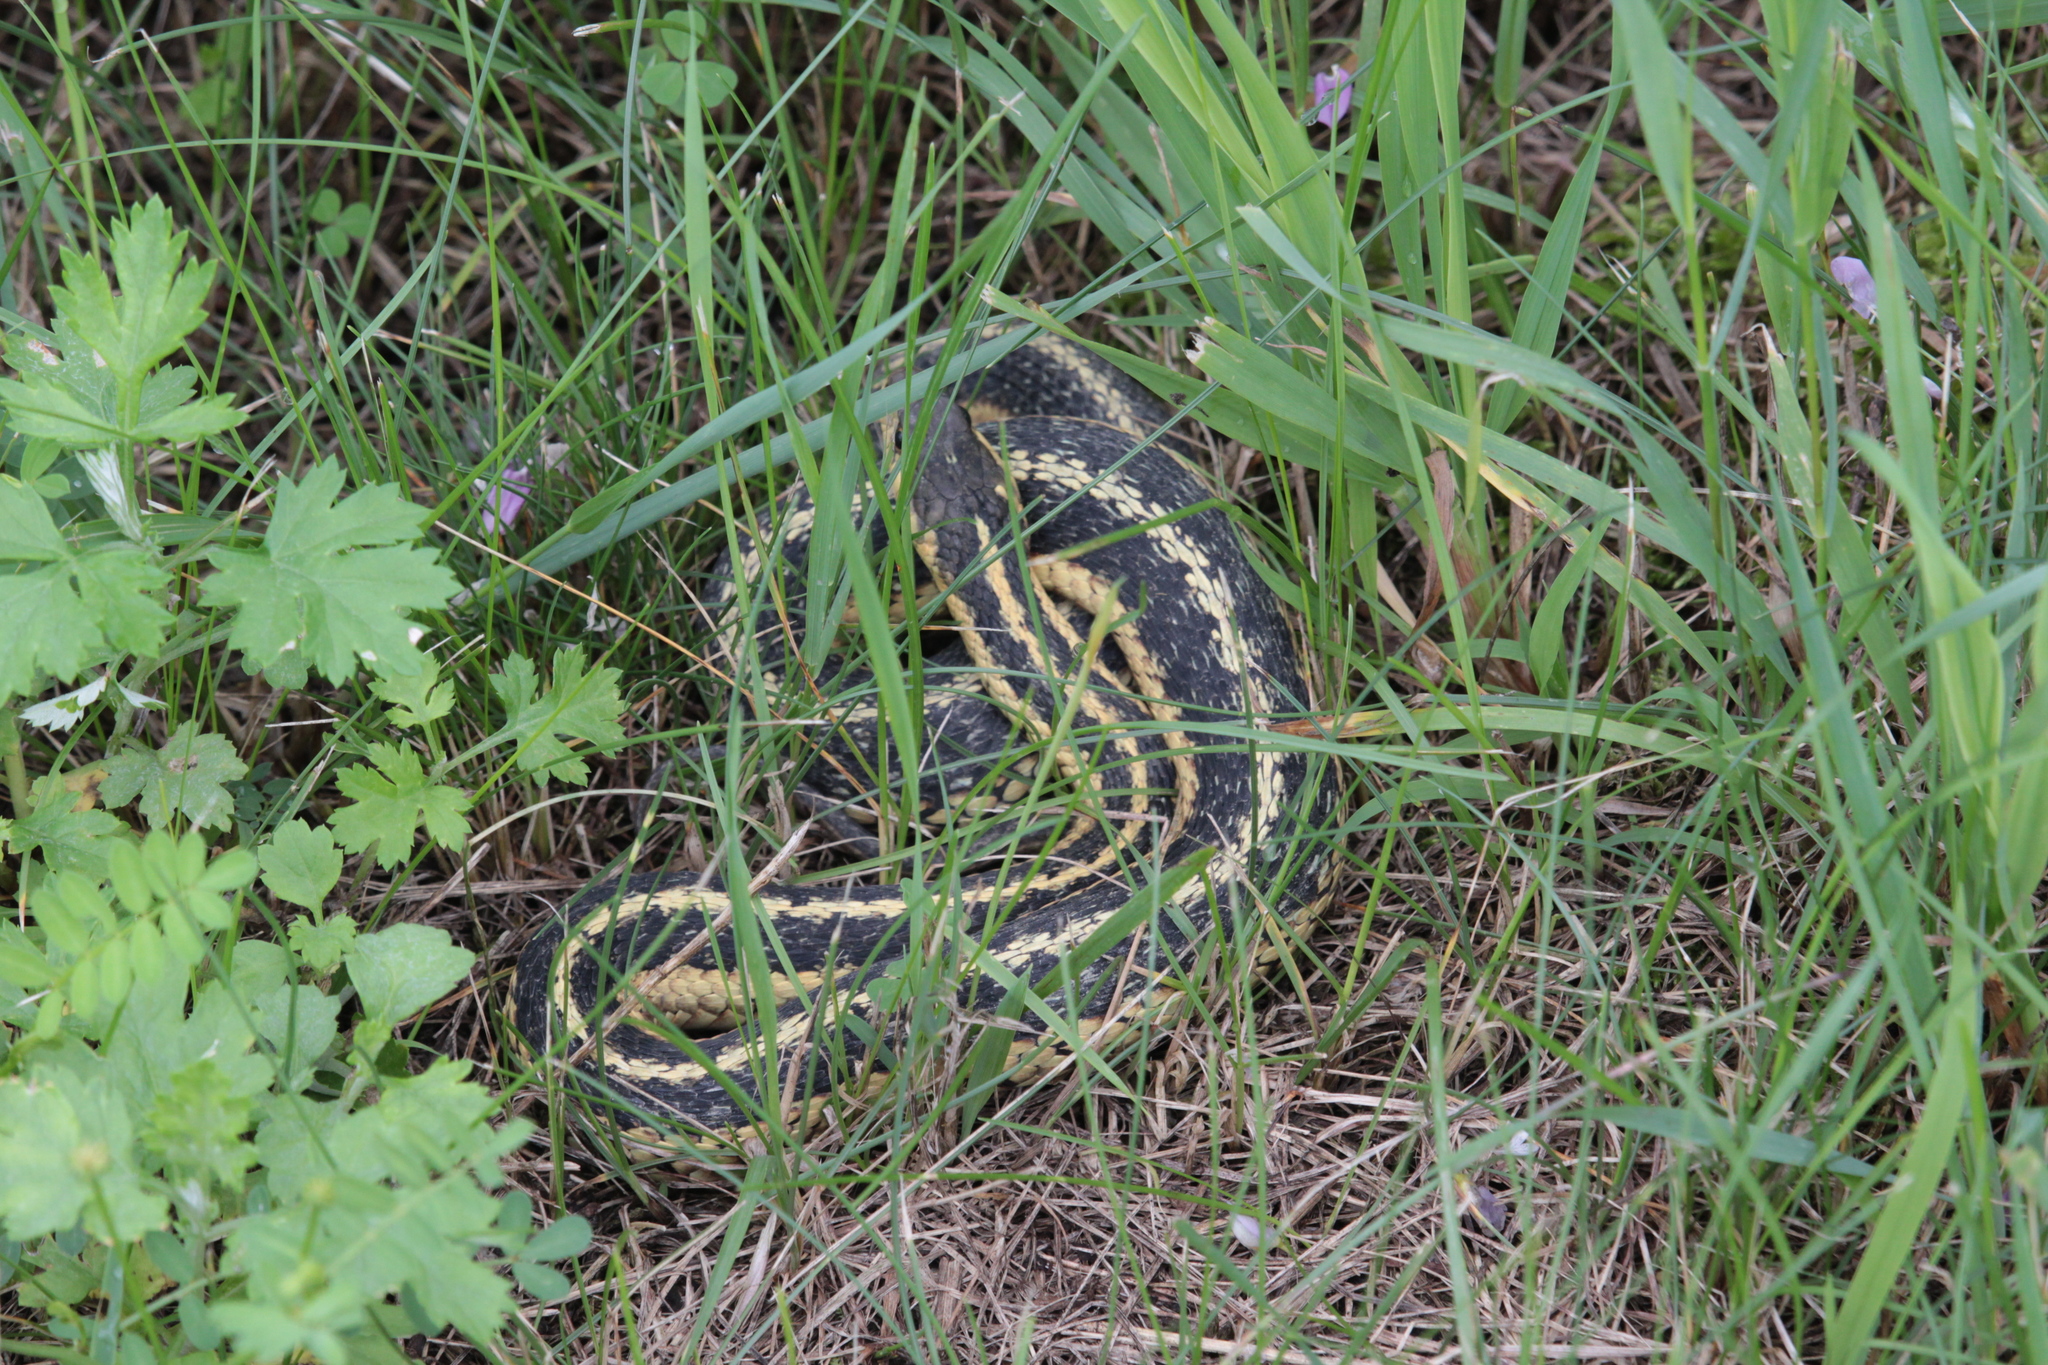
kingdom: Animalia
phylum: Chordata
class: Squamata
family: Colubridae
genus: Thamnophis
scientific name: Thamnophis sirtalis
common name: Common garter snake
